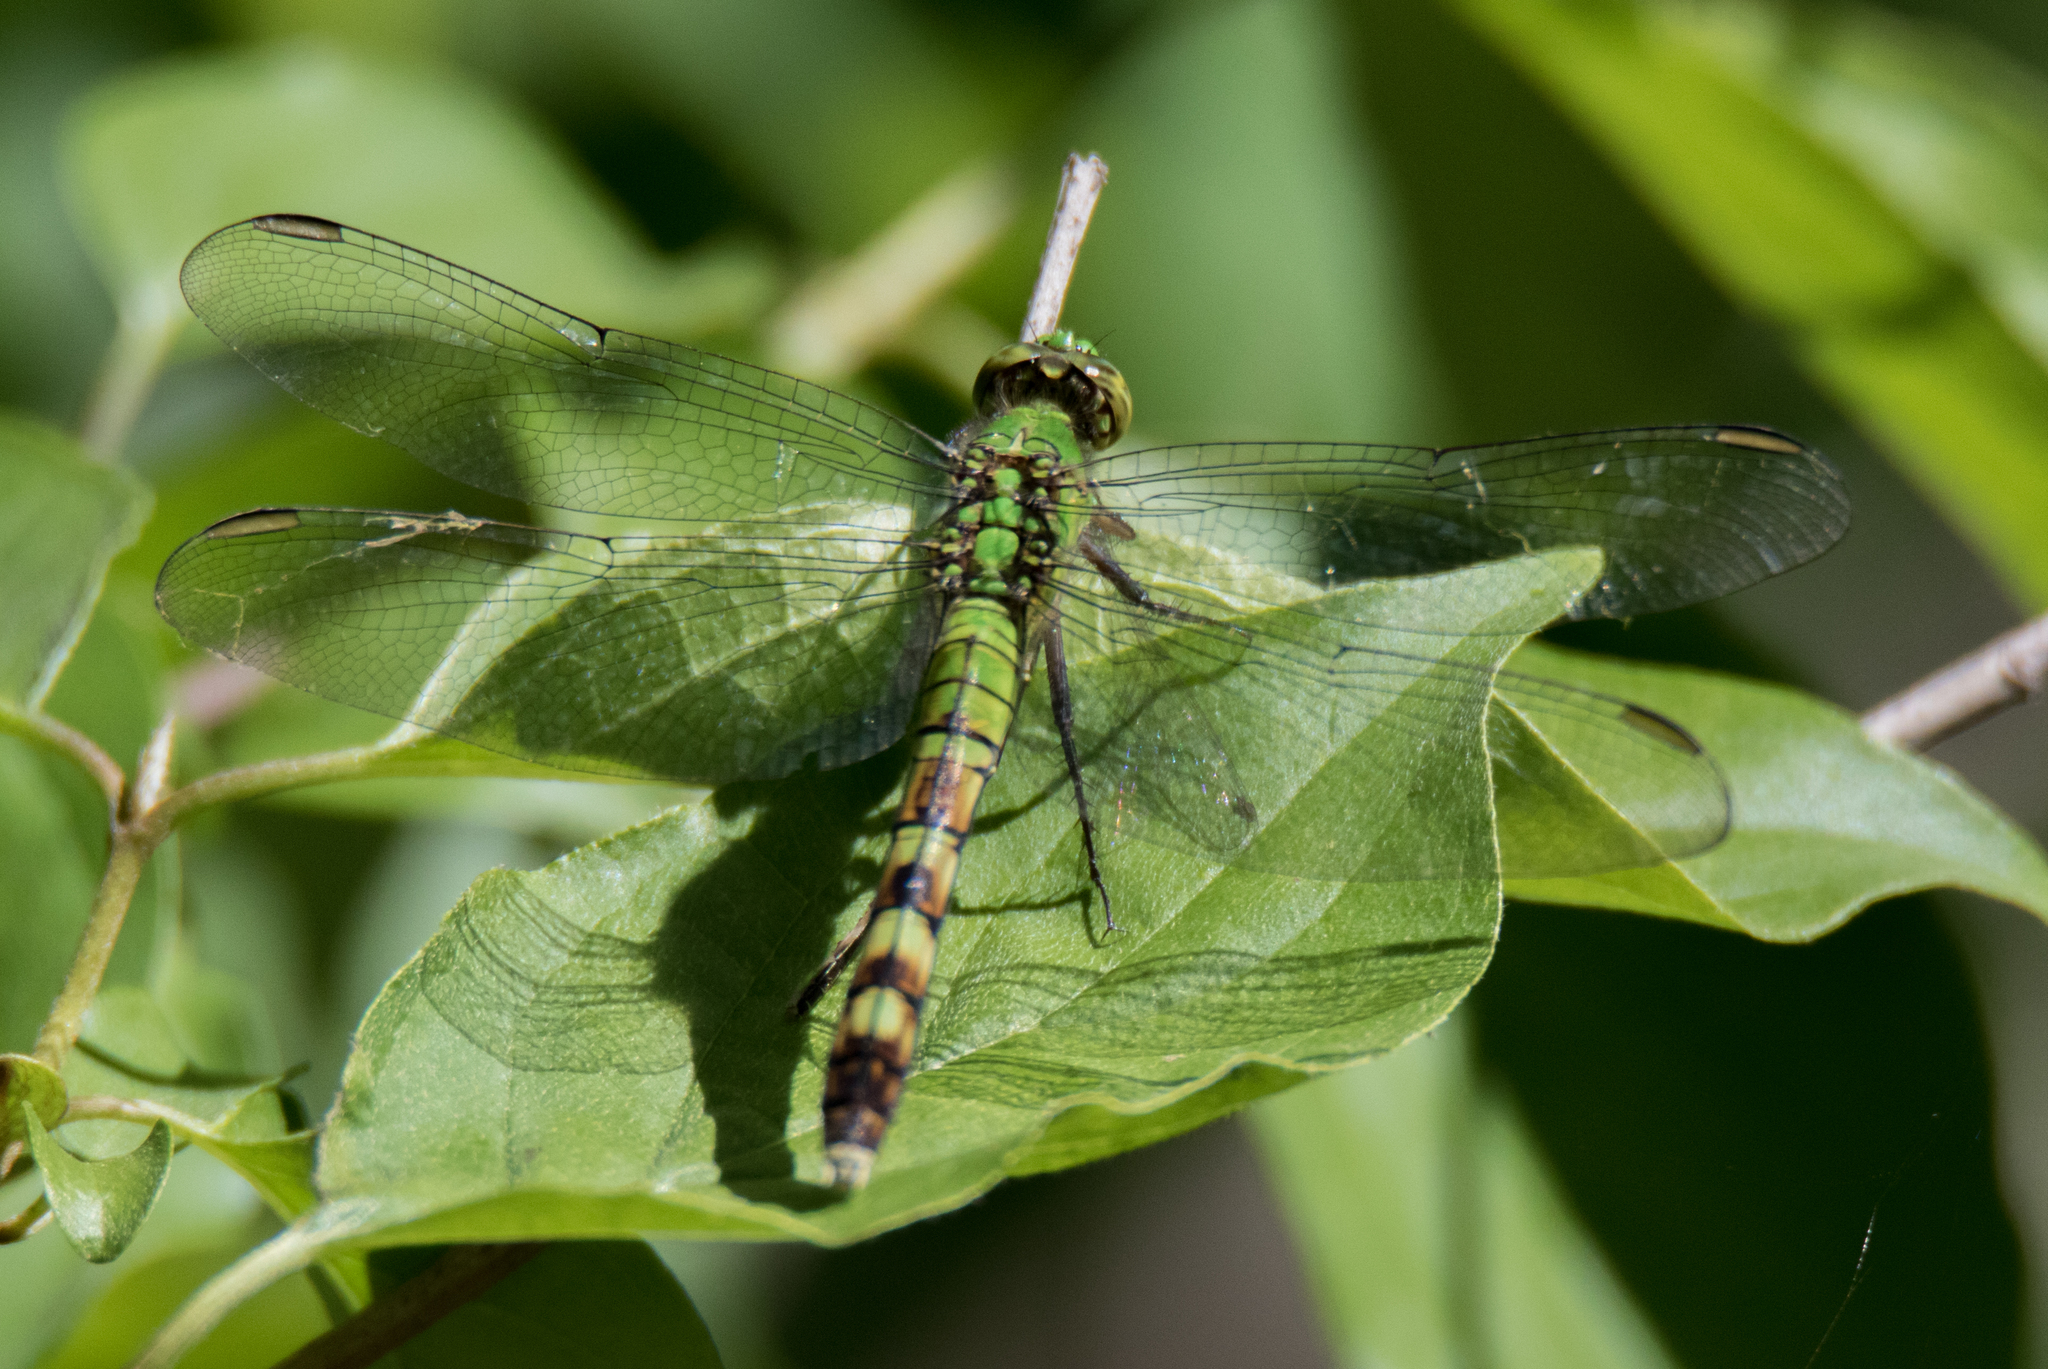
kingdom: Animalia
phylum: Arthropoda
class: Insecta
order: Odonata
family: Libellulidae
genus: Erythemis
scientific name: Erythemis simplicicollis
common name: Eastern pondhawk
